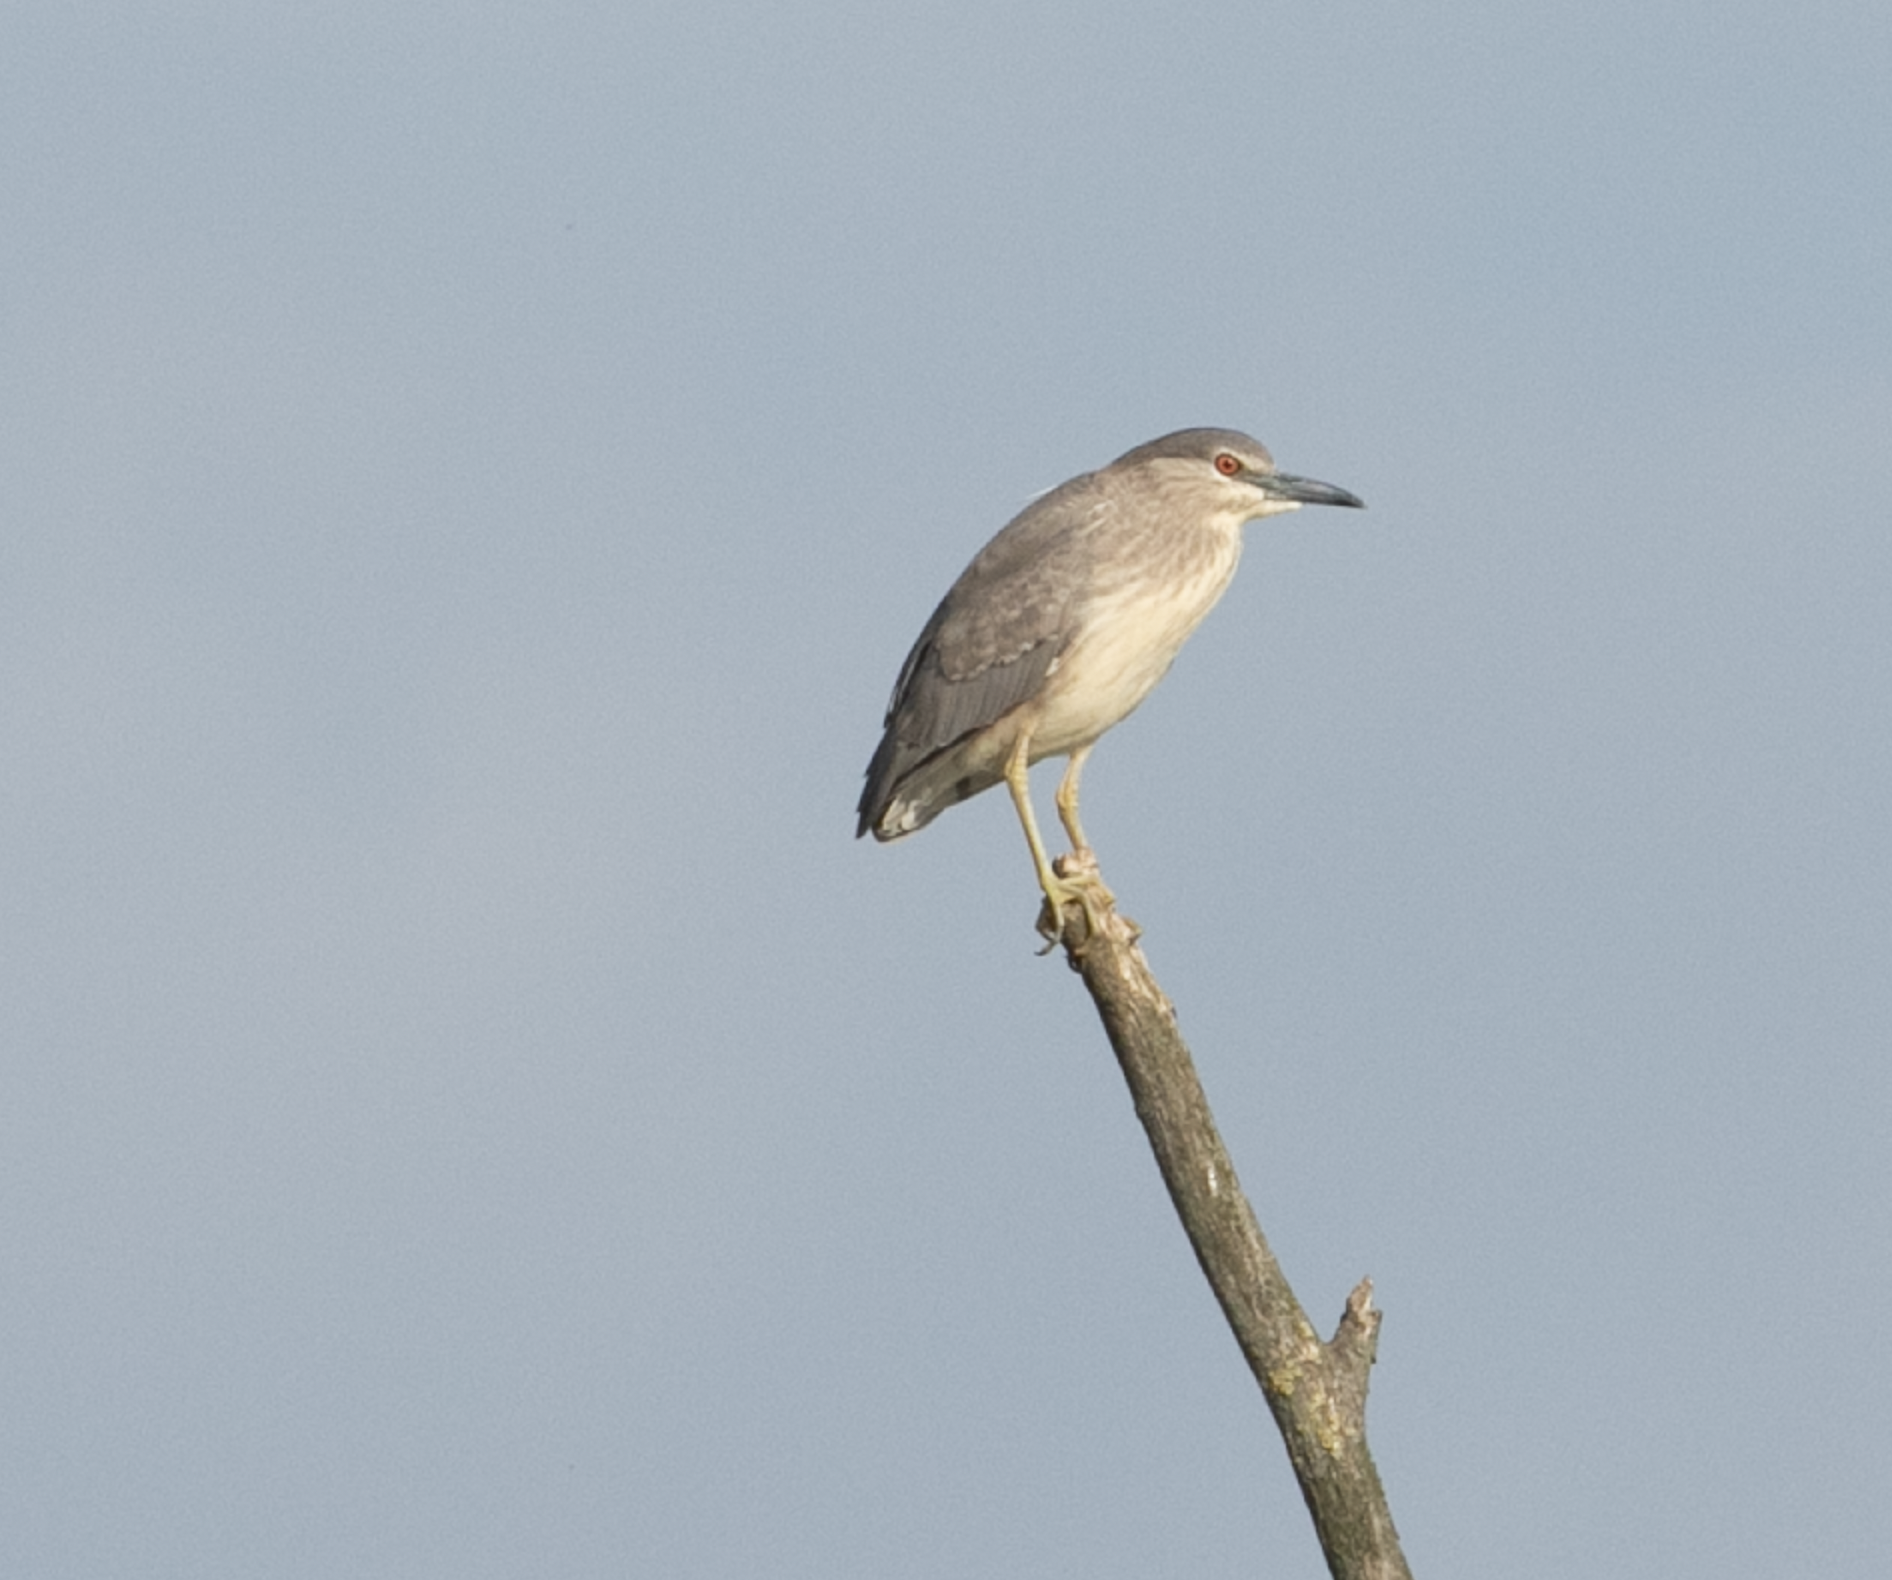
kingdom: Animalia
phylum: Chordata
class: Aves
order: Pelecaniformes
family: Ardeidae
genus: Nycticorax
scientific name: Nycticorax nycticorax
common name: Black-crowned night heron
